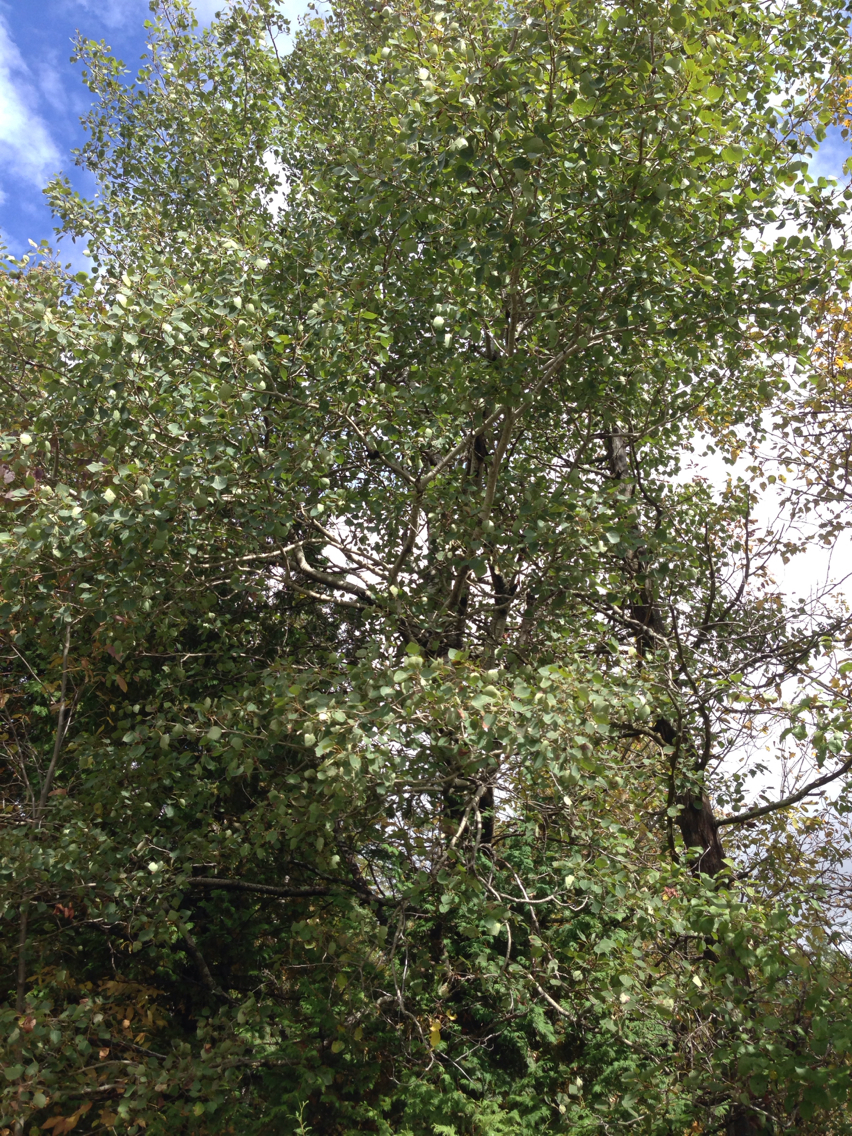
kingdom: Plantae
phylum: Tracheophyta
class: Magnoliopsida
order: Malpighiales
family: Salicaceae
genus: Populus
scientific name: Populus tremuloides
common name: Quaking aspen
